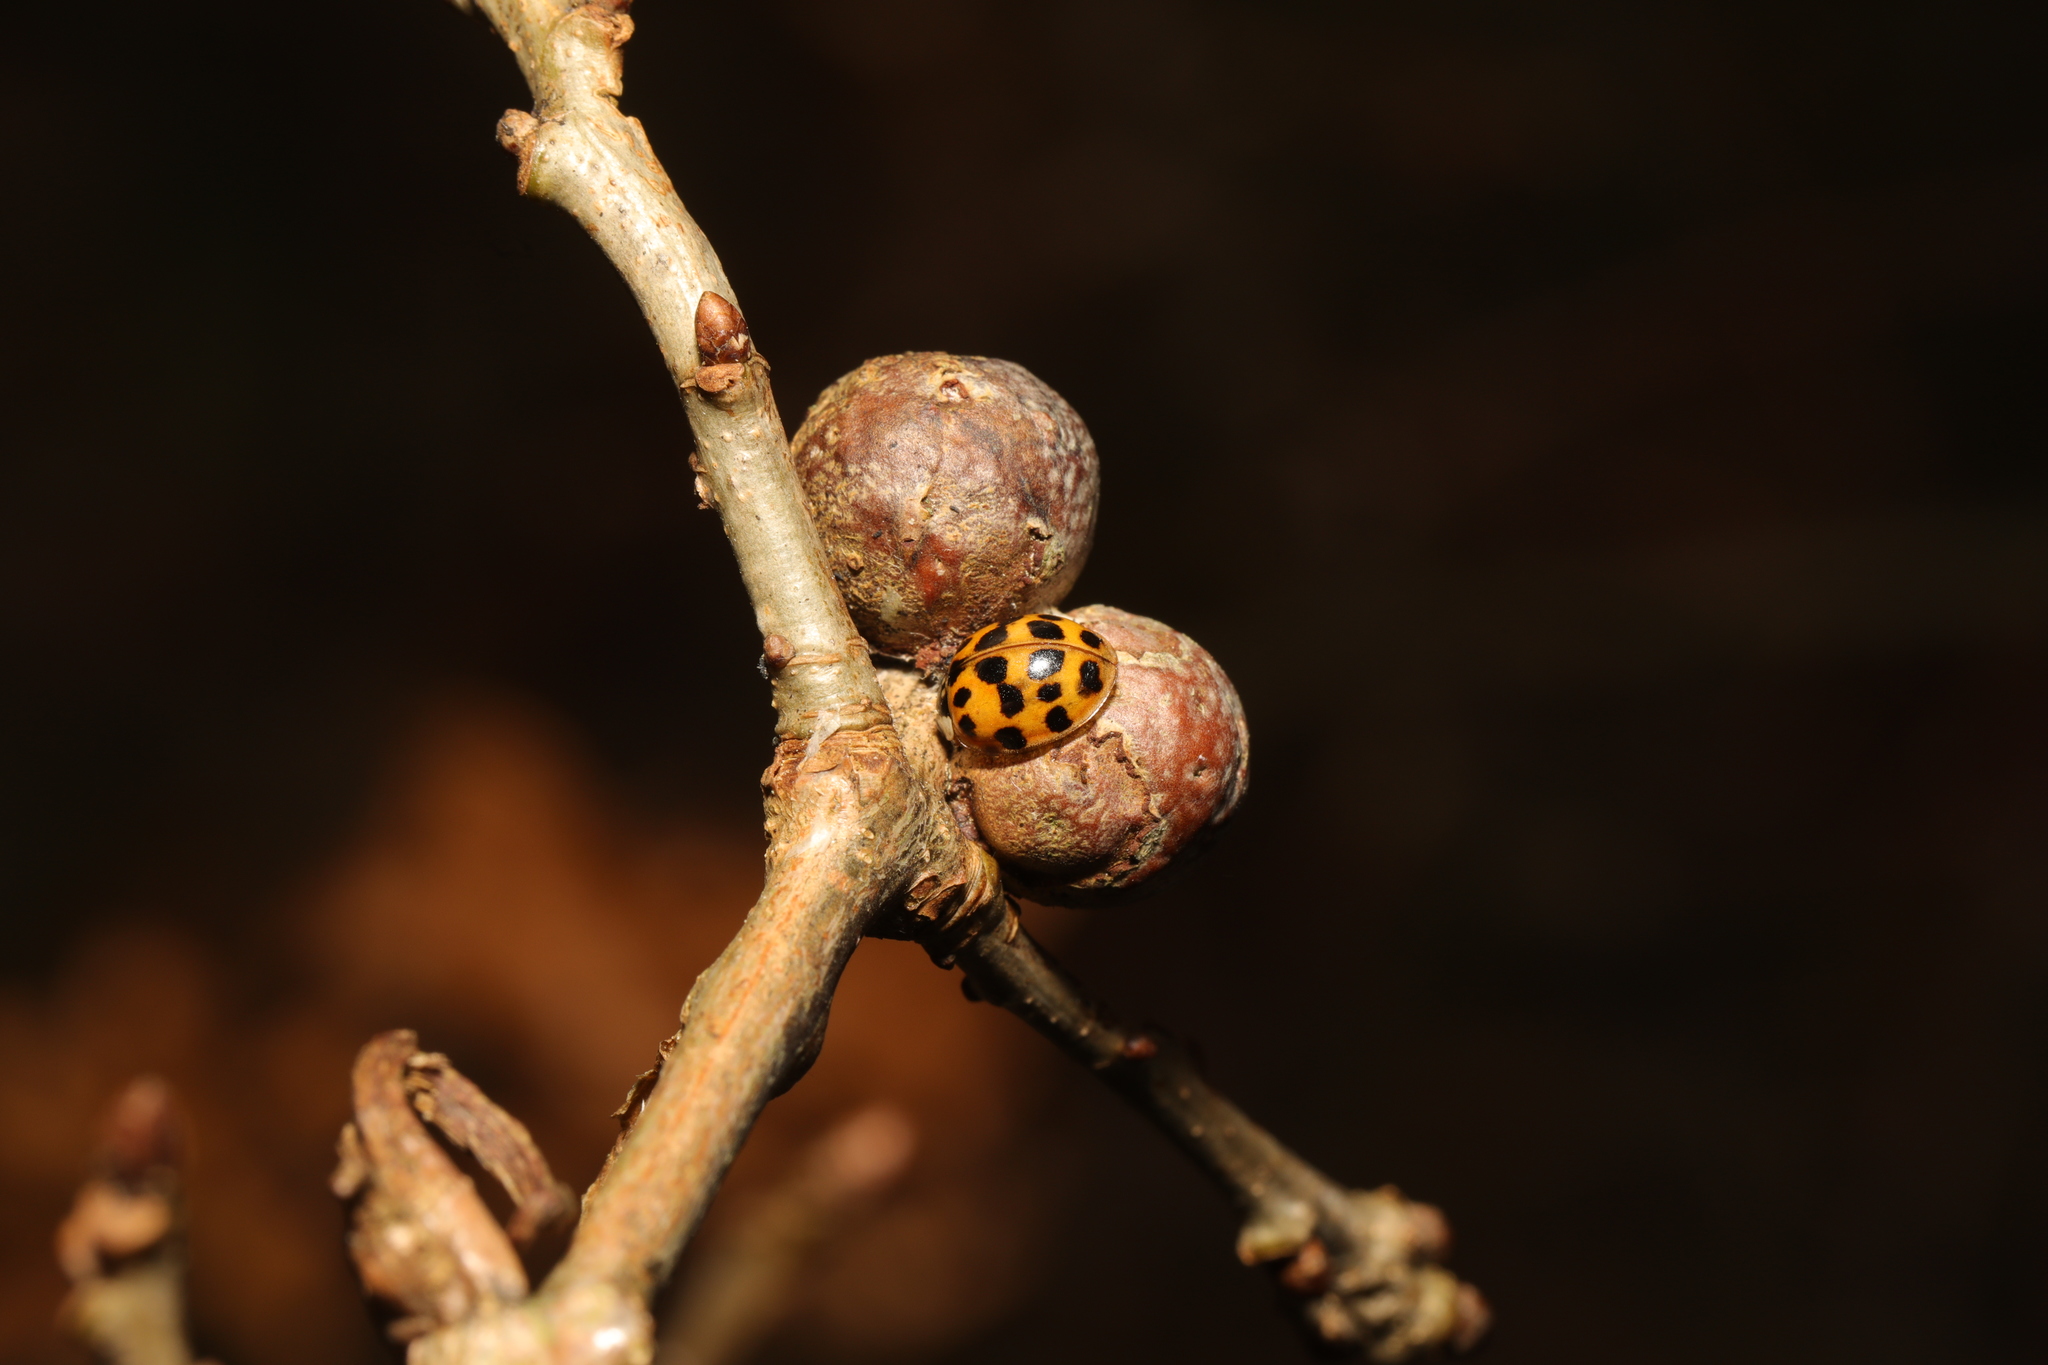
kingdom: Animalia
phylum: Arthropoda
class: Insecta
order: Hymenoptera
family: Cynipidae
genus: Andricus
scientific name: Andricus lignicolus
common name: Cola-nut gall
